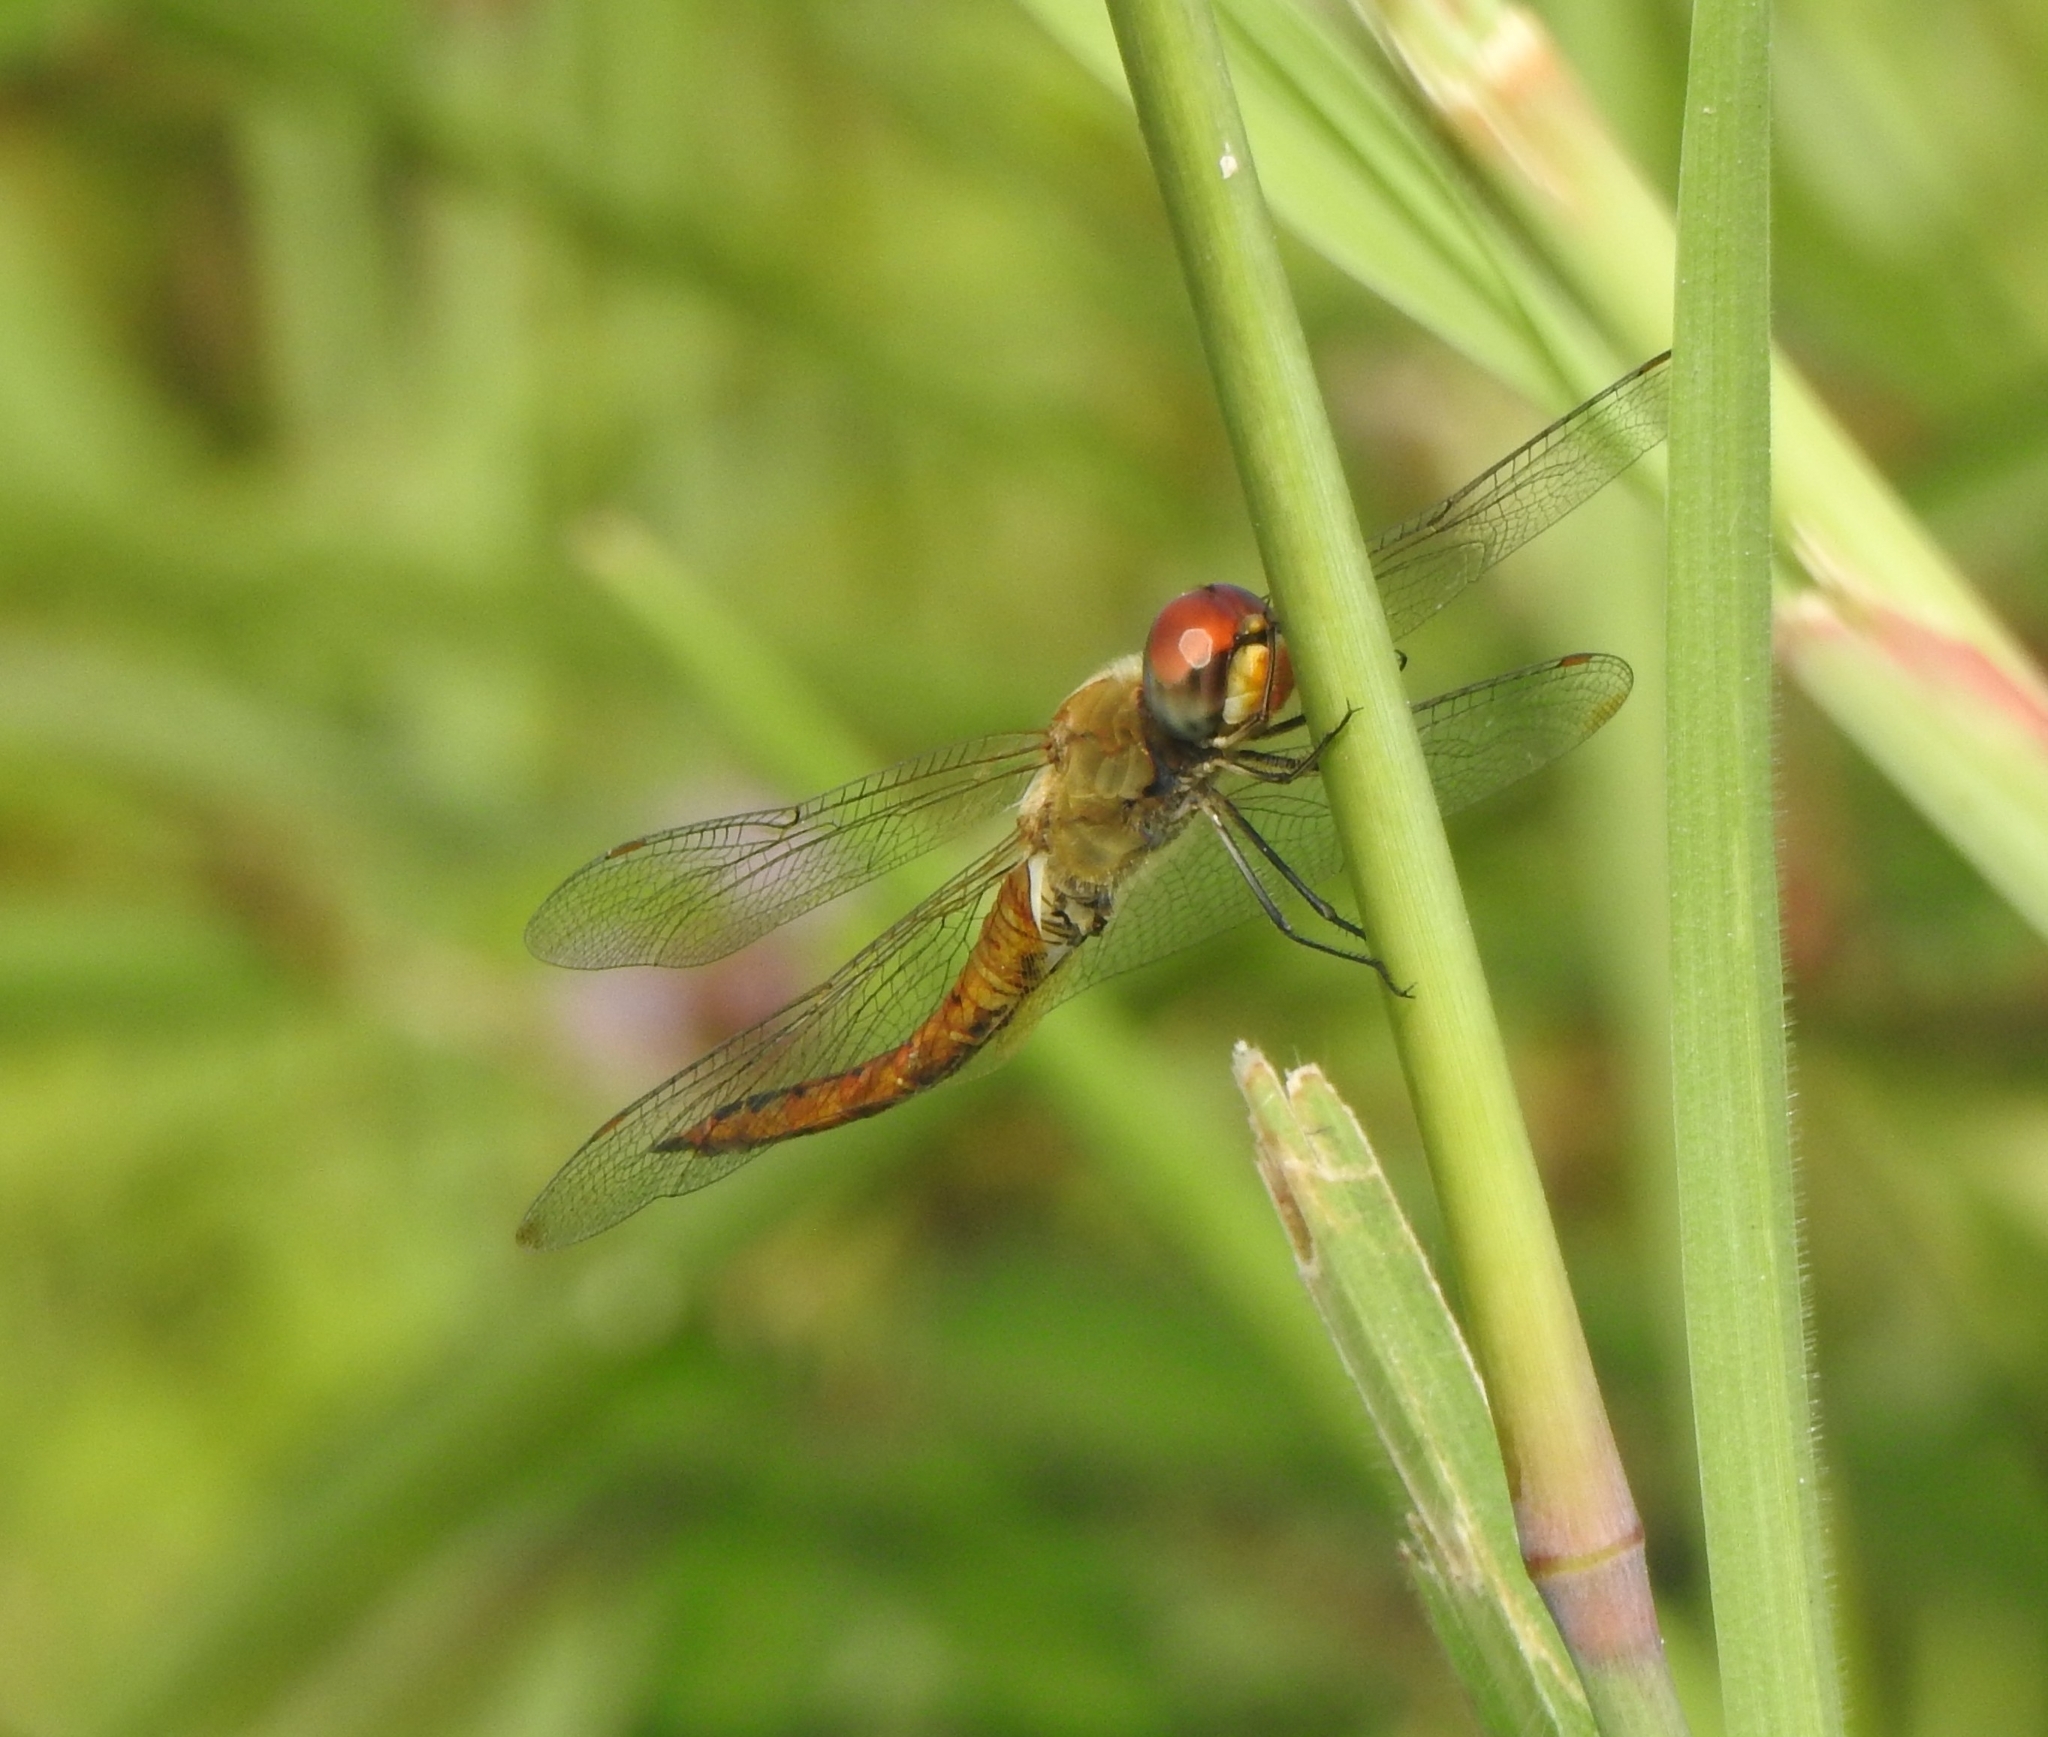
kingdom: Animalia
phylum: Arthropoda
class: Insecta
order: Odonata
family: Libellulidae
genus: Pantala
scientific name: Pantala flavescens
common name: Wandering glider
